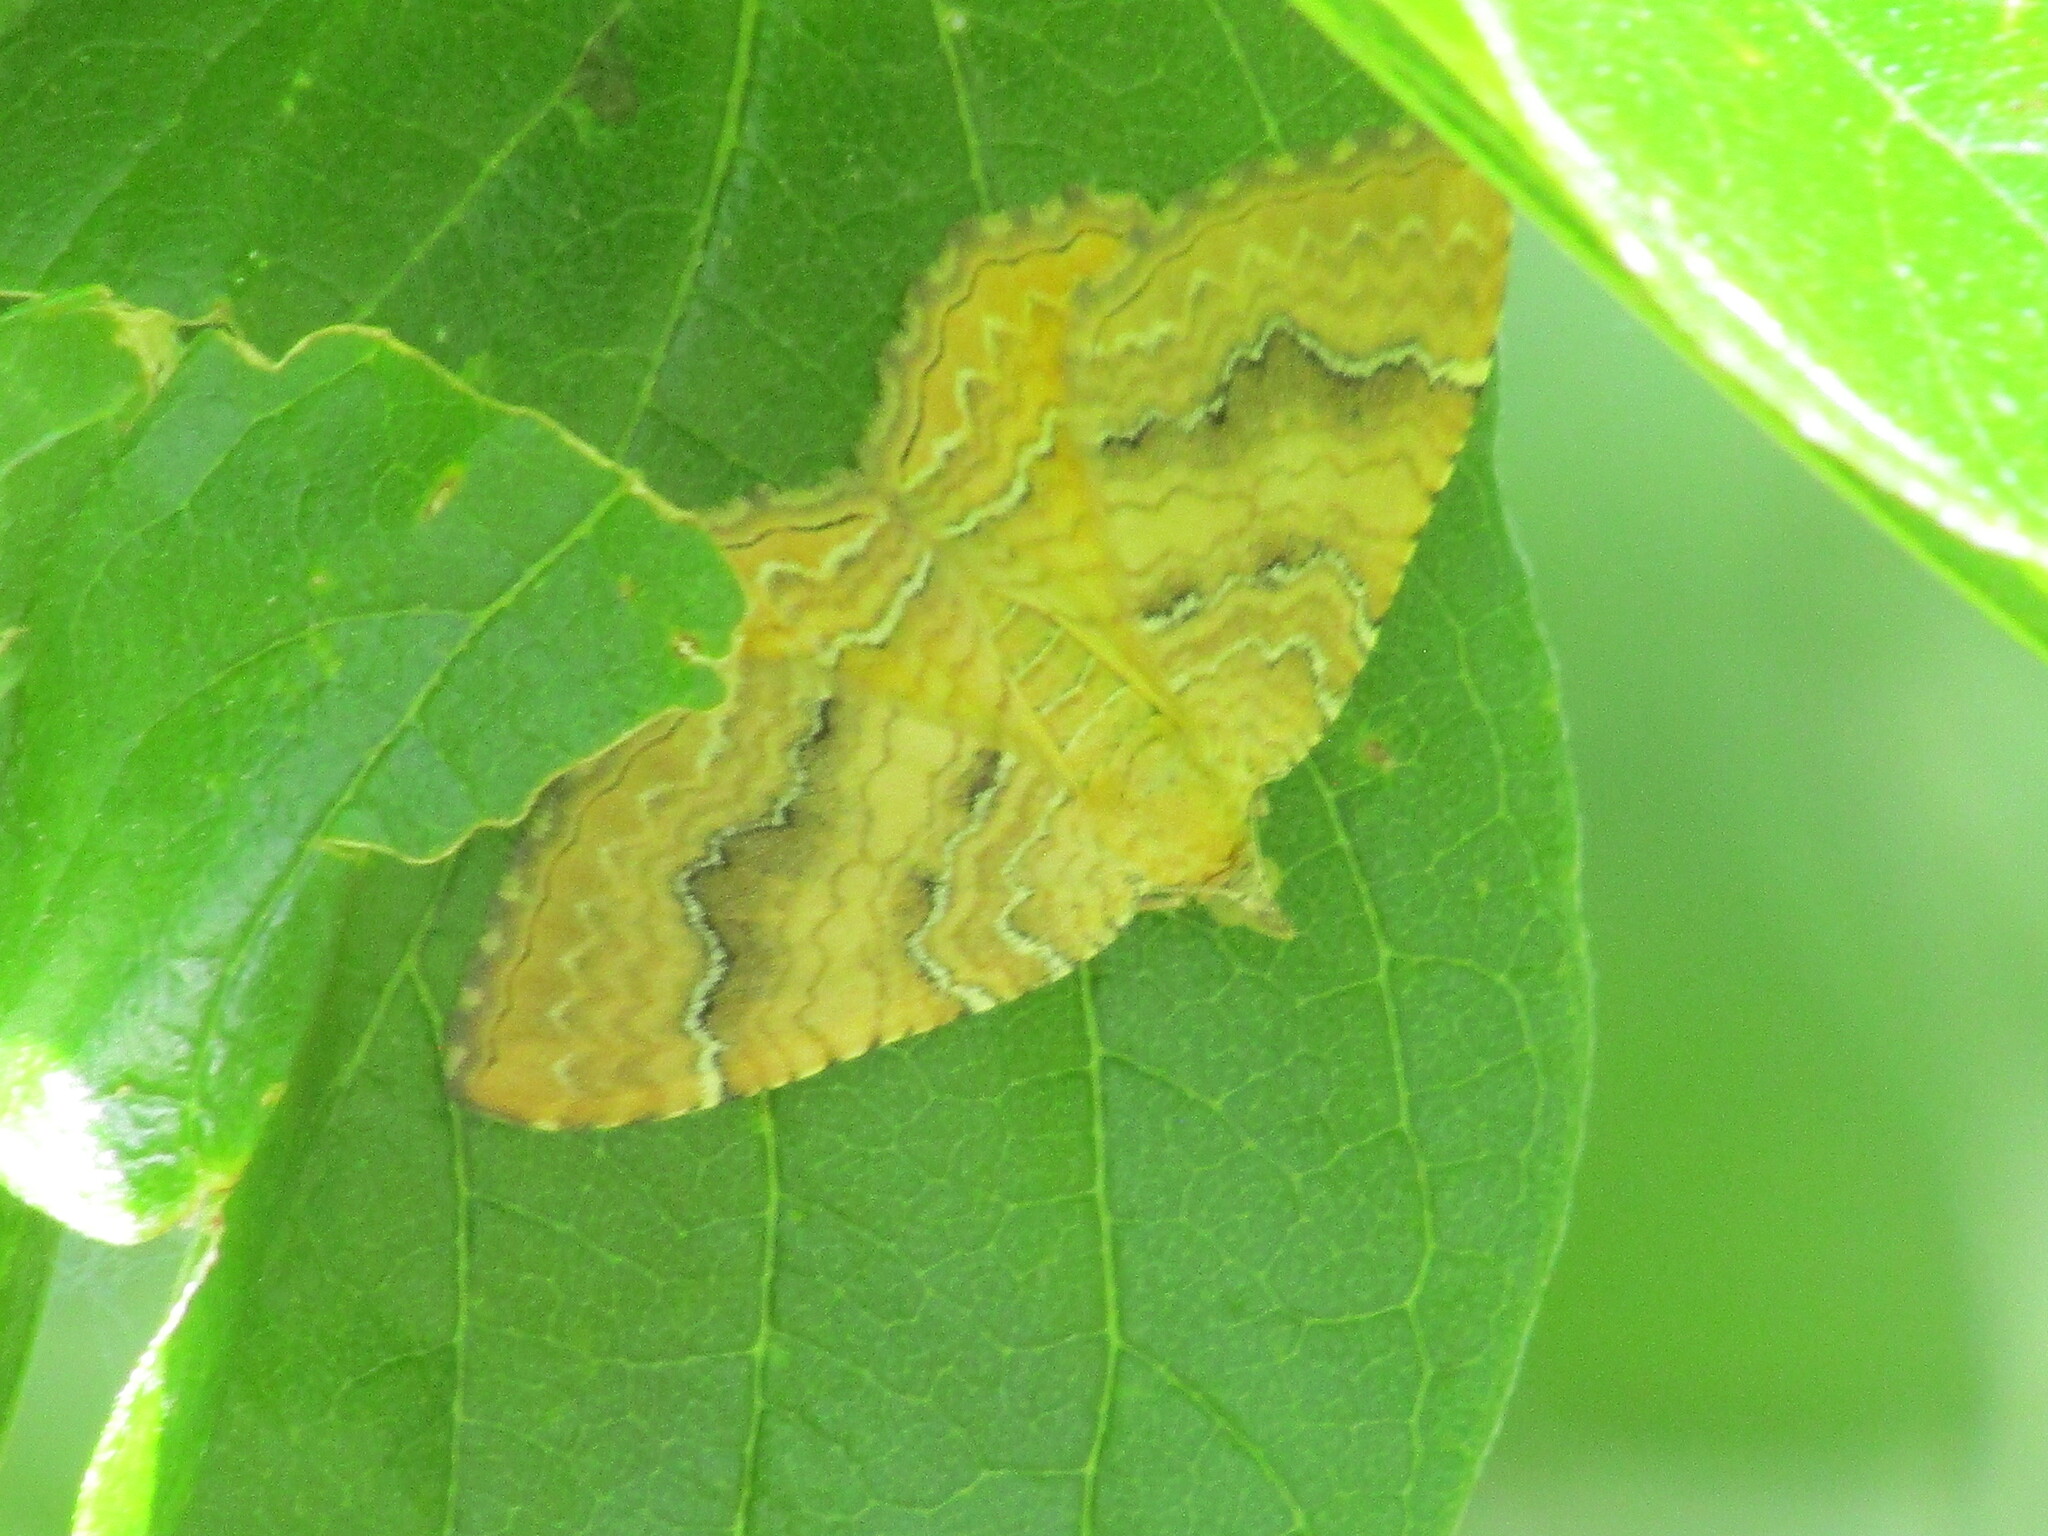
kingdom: Animalia
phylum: Arthropoda
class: Insecta
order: Lepidoptera
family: Geometridae
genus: Camptogramma
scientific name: Camptogramma bilineata
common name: Yellow shell
